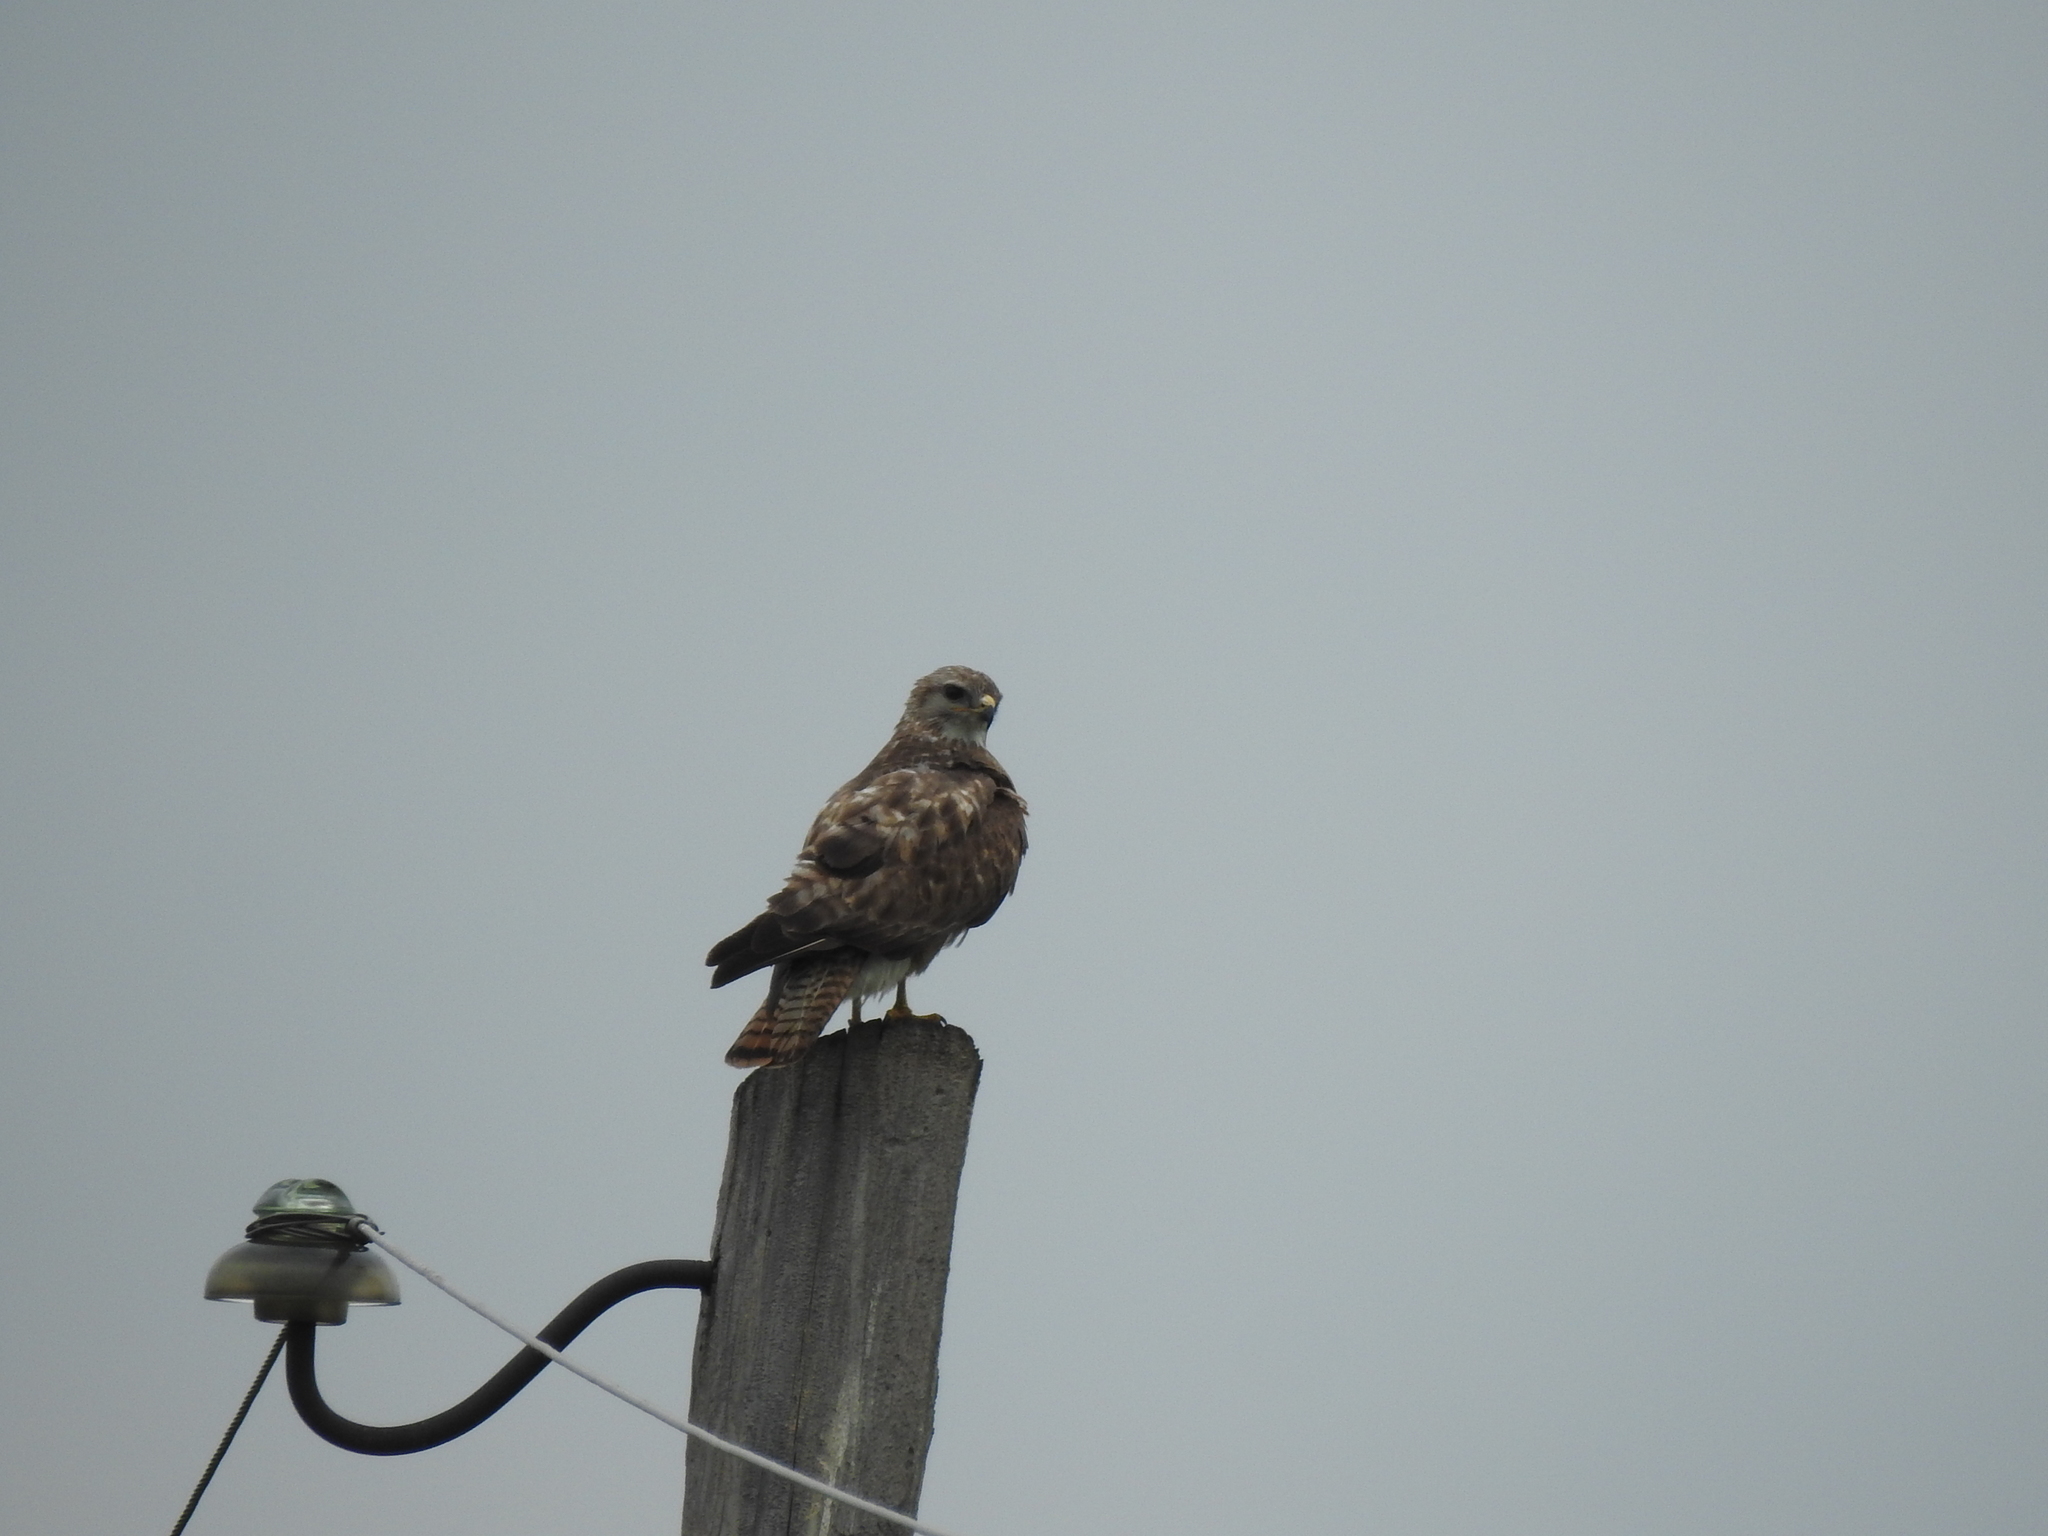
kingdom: Animalia
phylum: Chordata
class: Aves
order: Accipitriformes
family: Accipitridae
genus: Buteo
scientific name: Buteo buteo
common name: Common buzzard
